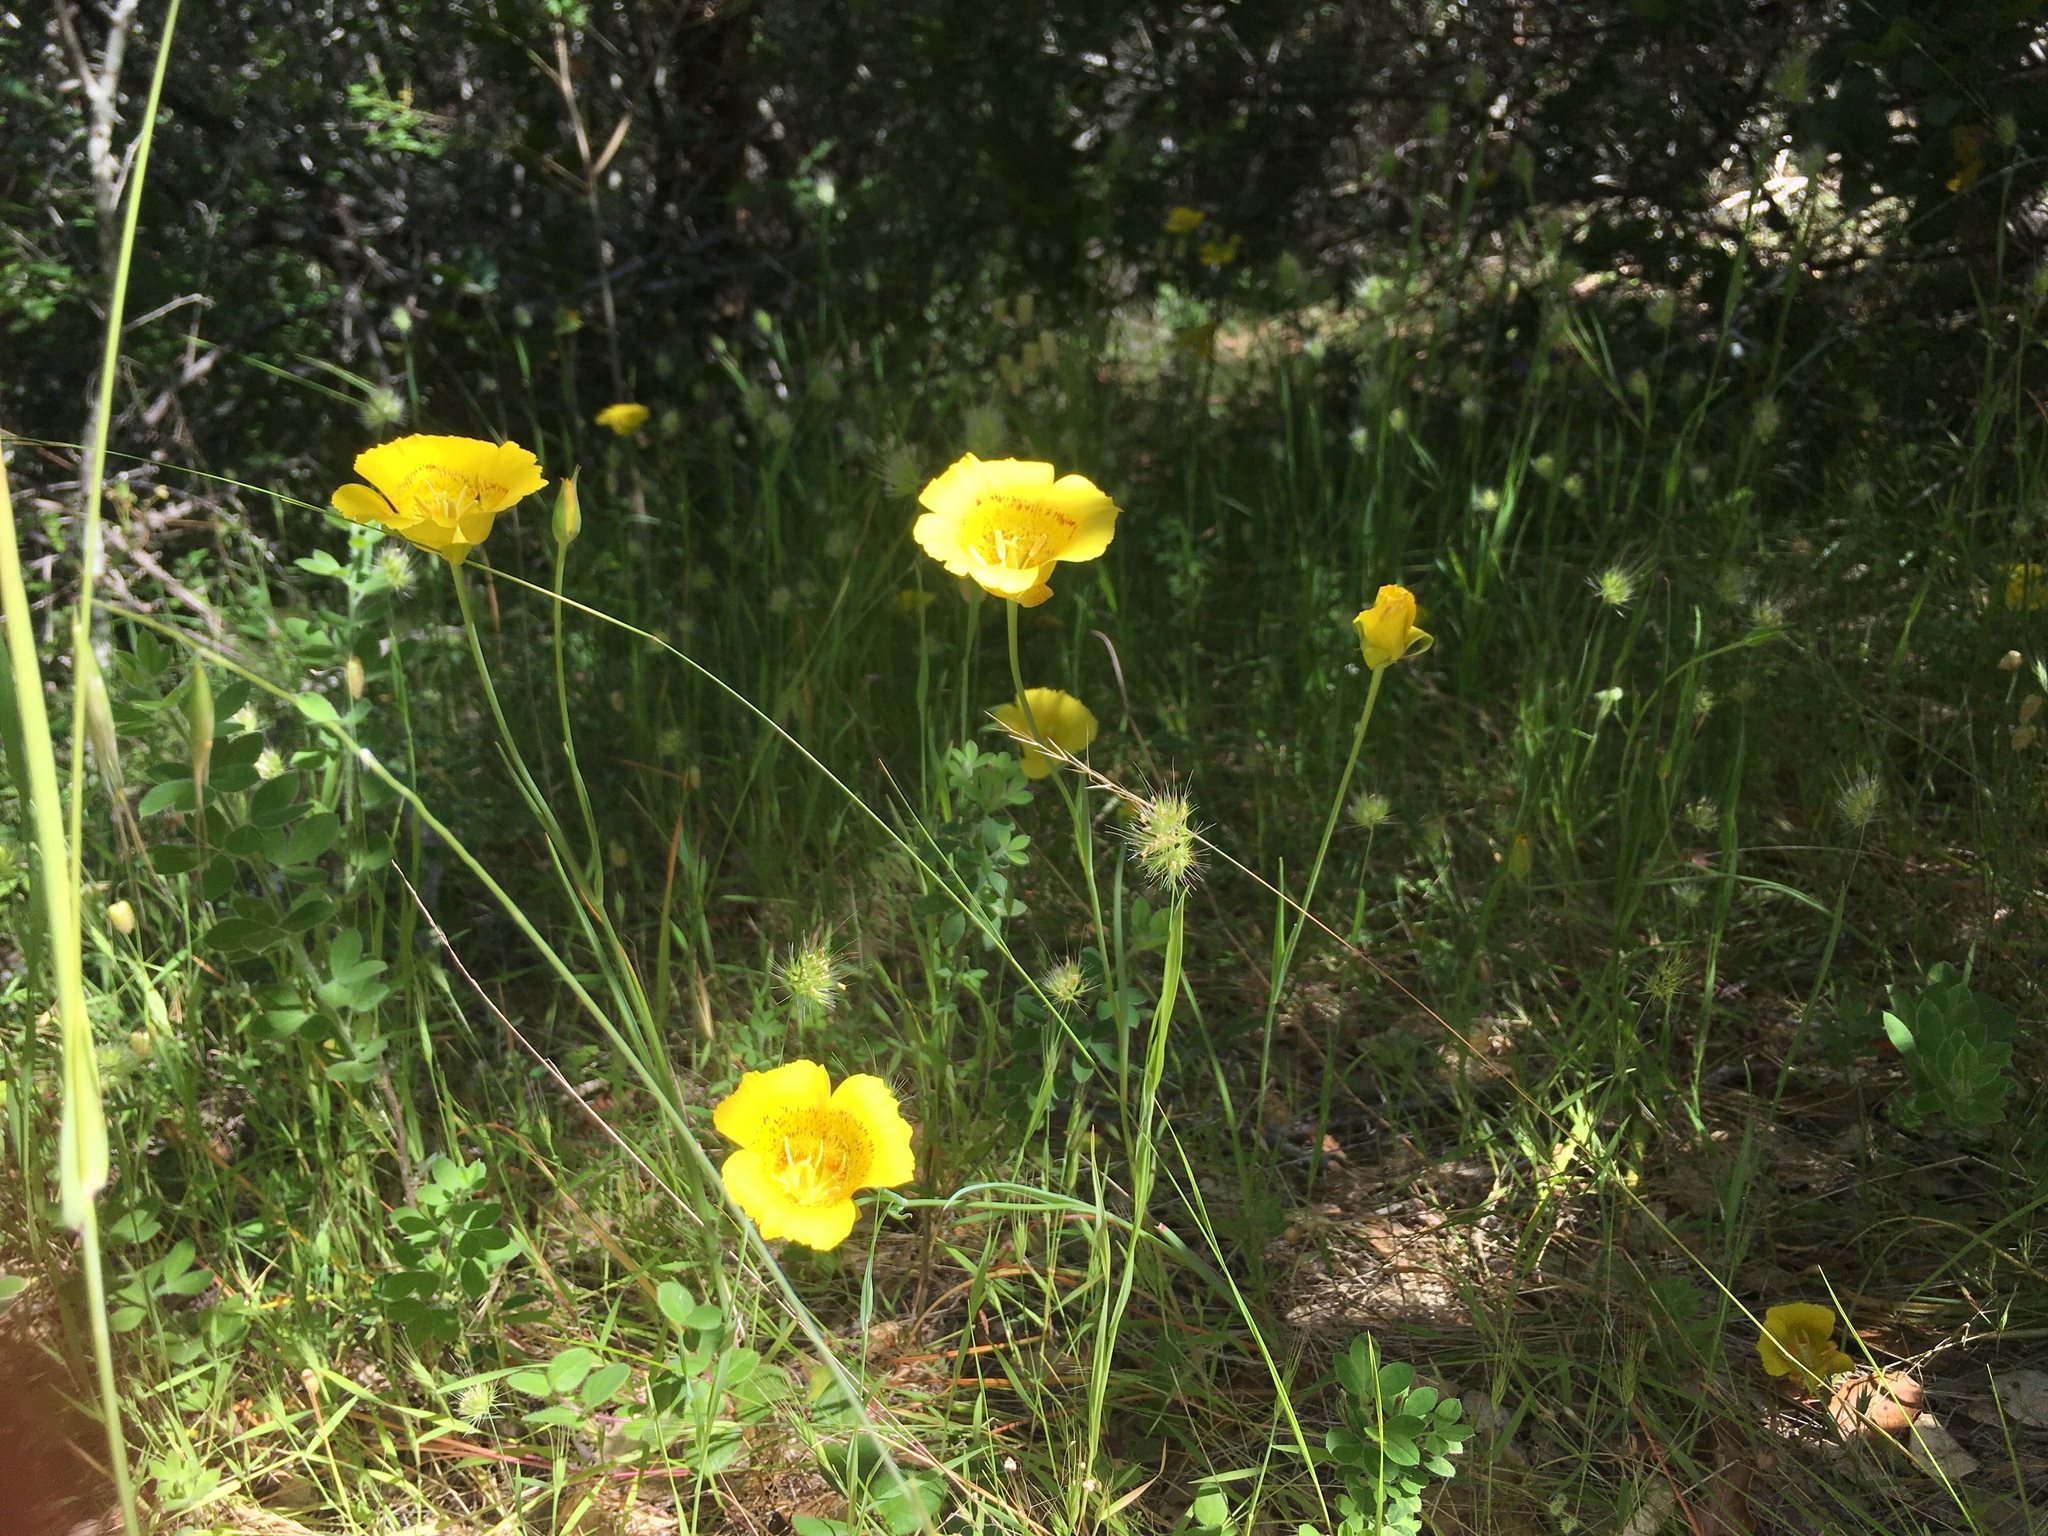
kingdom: Plantae
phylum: Tracheophyta
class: Liliopsida
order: Liliales
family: Liliaceae
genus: Calochortus
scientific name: Calochortus luteus
